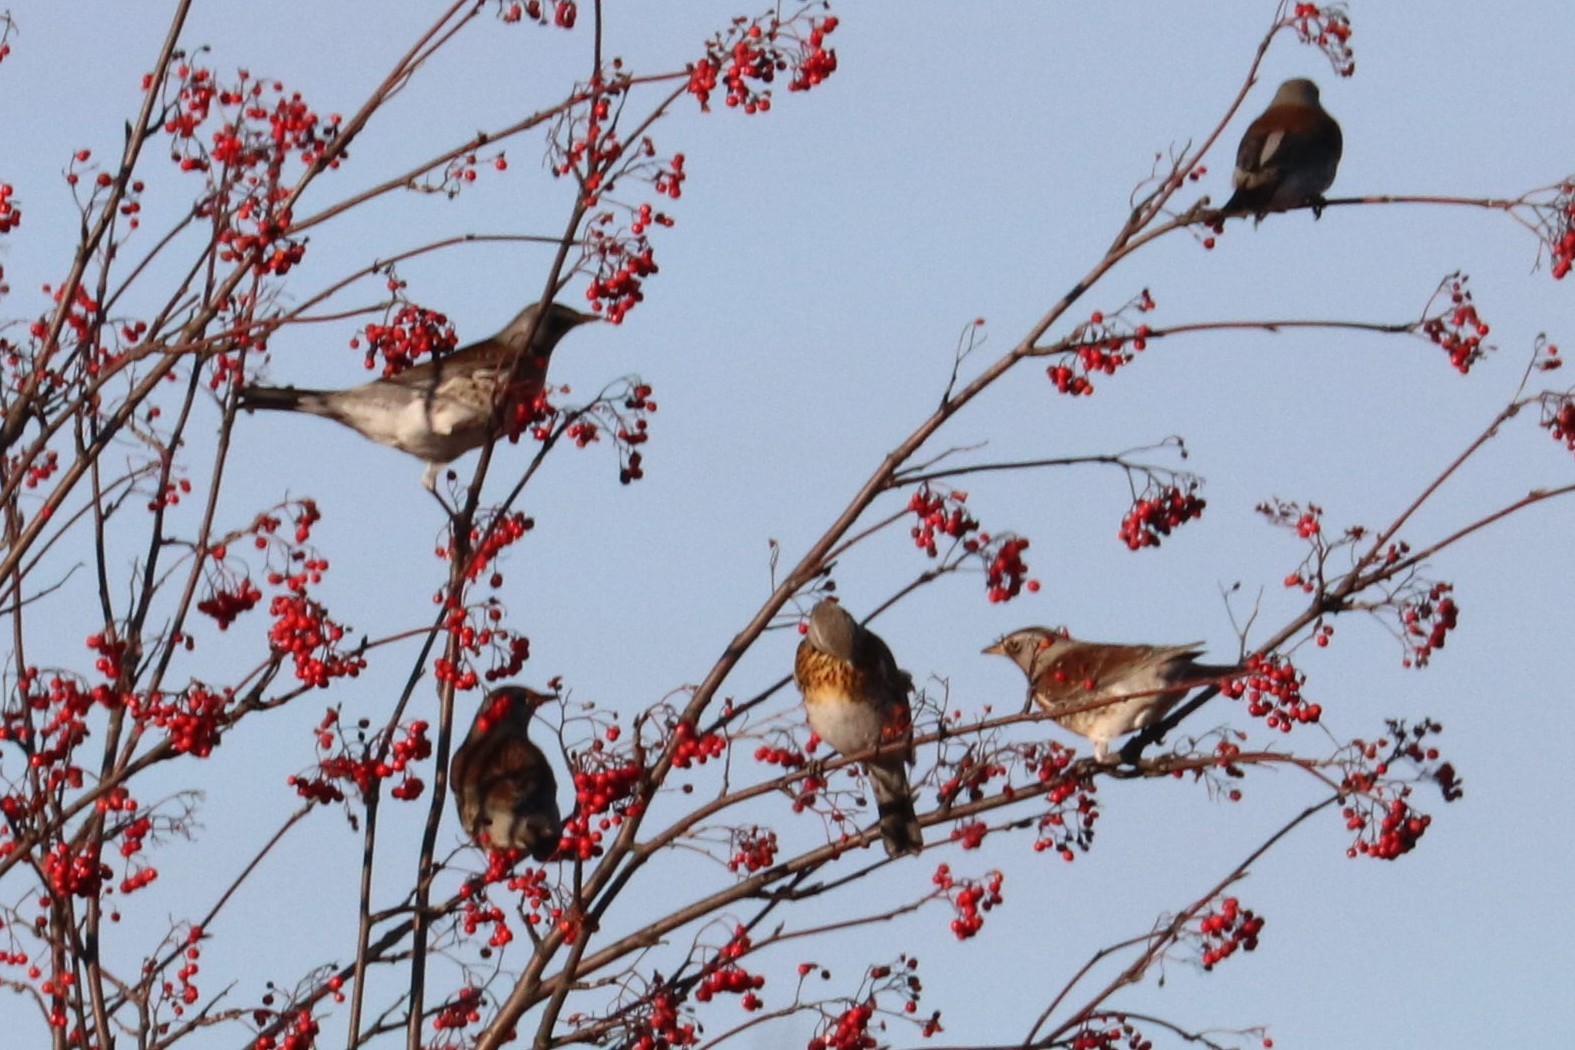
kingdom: Animalia
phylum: Chordata
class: Aves
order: Passeriformes
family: Turdidae
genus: Turdus
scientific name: Turdus pilaris
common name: Fieldfare
